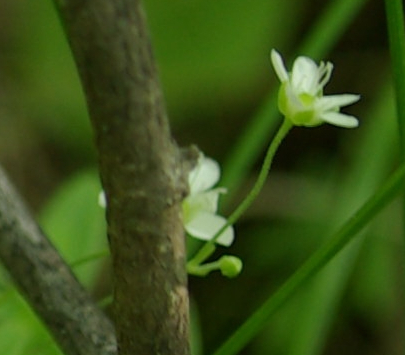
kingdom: Plantae
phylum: Tracheophyta
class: Magnoliopsida
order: Caryophyllales
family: Caryophyllaceae
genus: Moehringia
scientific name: Moehringia lateriflora
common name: Blunt-leaved sandwort
